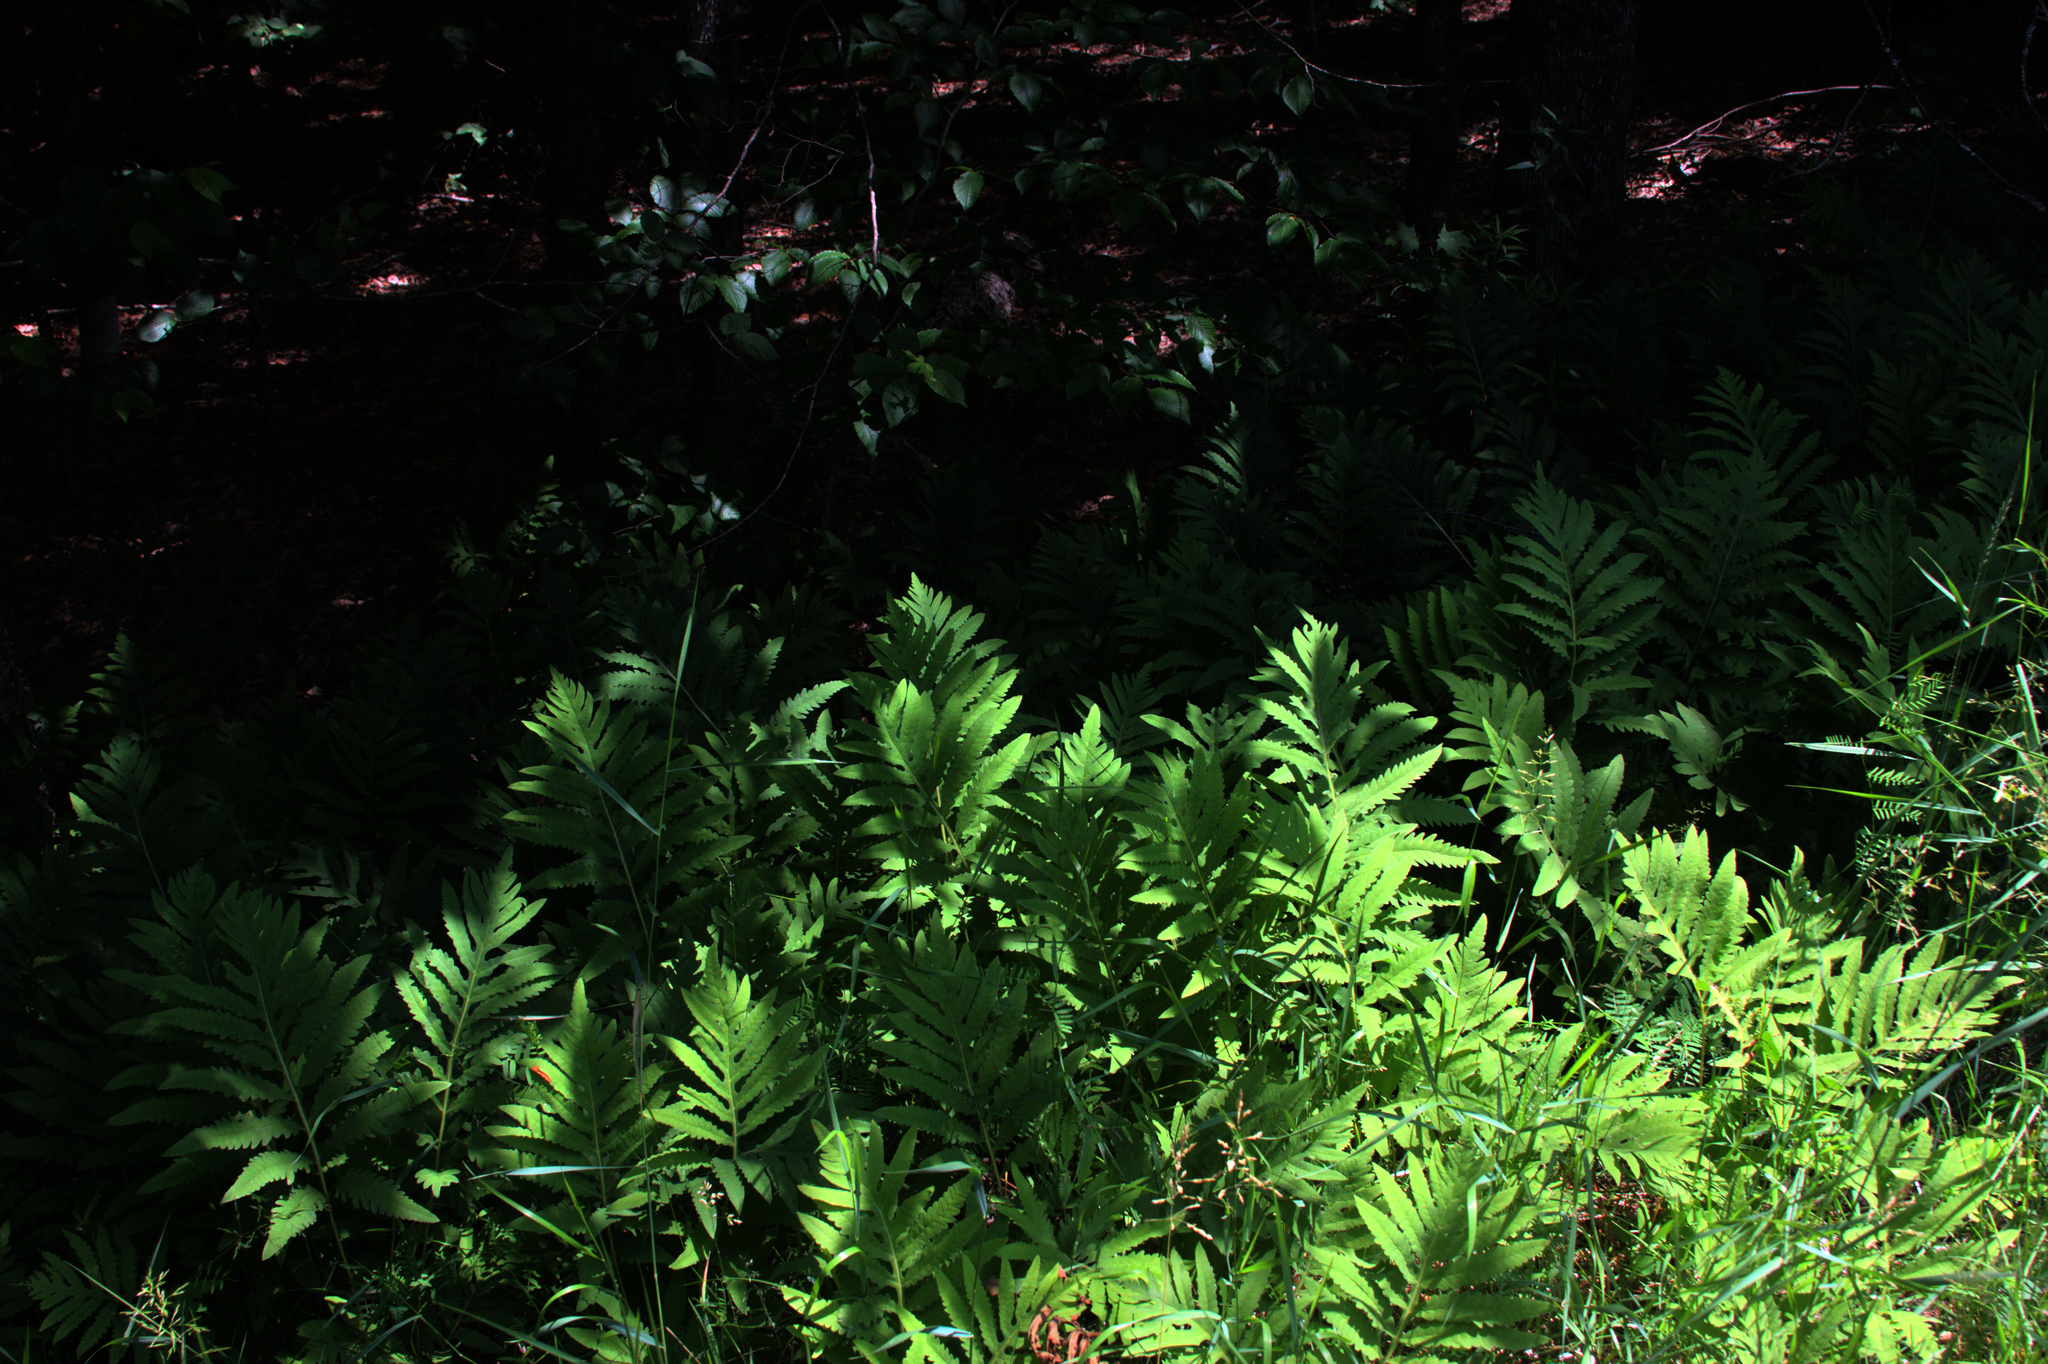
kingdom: Plantae
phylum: Tracheophyta
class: Polypodiopsida
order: Polypodiales
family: Onocleaceae
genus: Onoclea
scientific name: Onoclea sensibilis
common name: Sensitive fern
